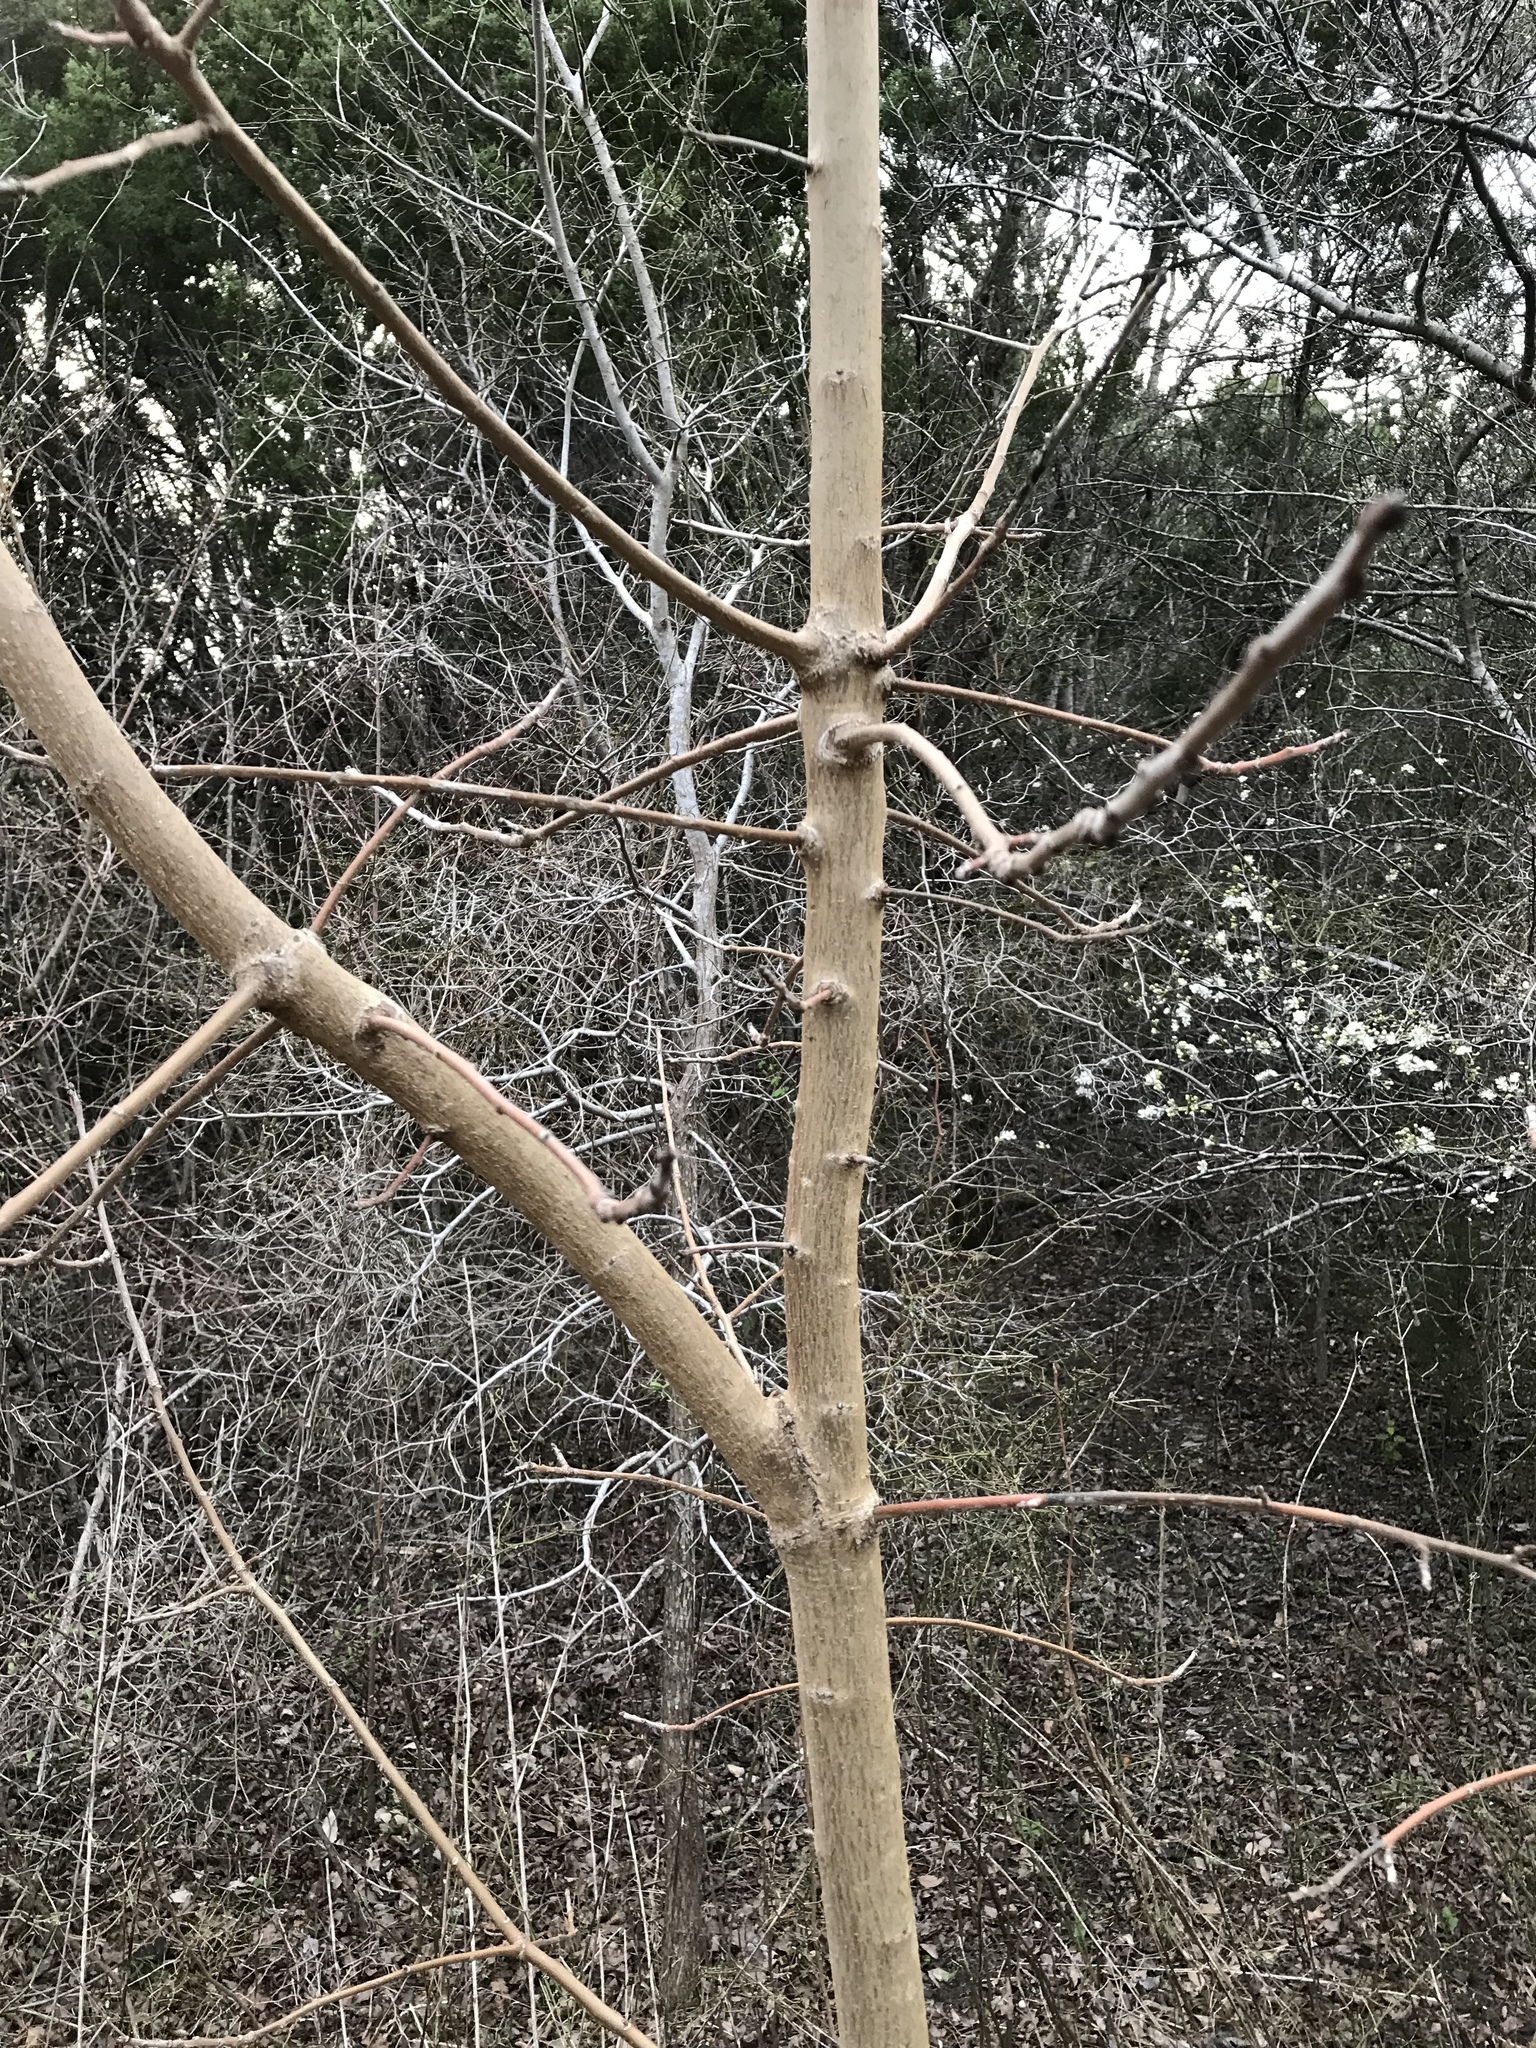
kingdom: Plantae
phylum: Tracheophyta
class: Magnoliopsida
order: Sapindales
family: Anacardiaceae
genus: Pistacia
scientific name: Pistacia chinensis
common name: Chinese pistache
